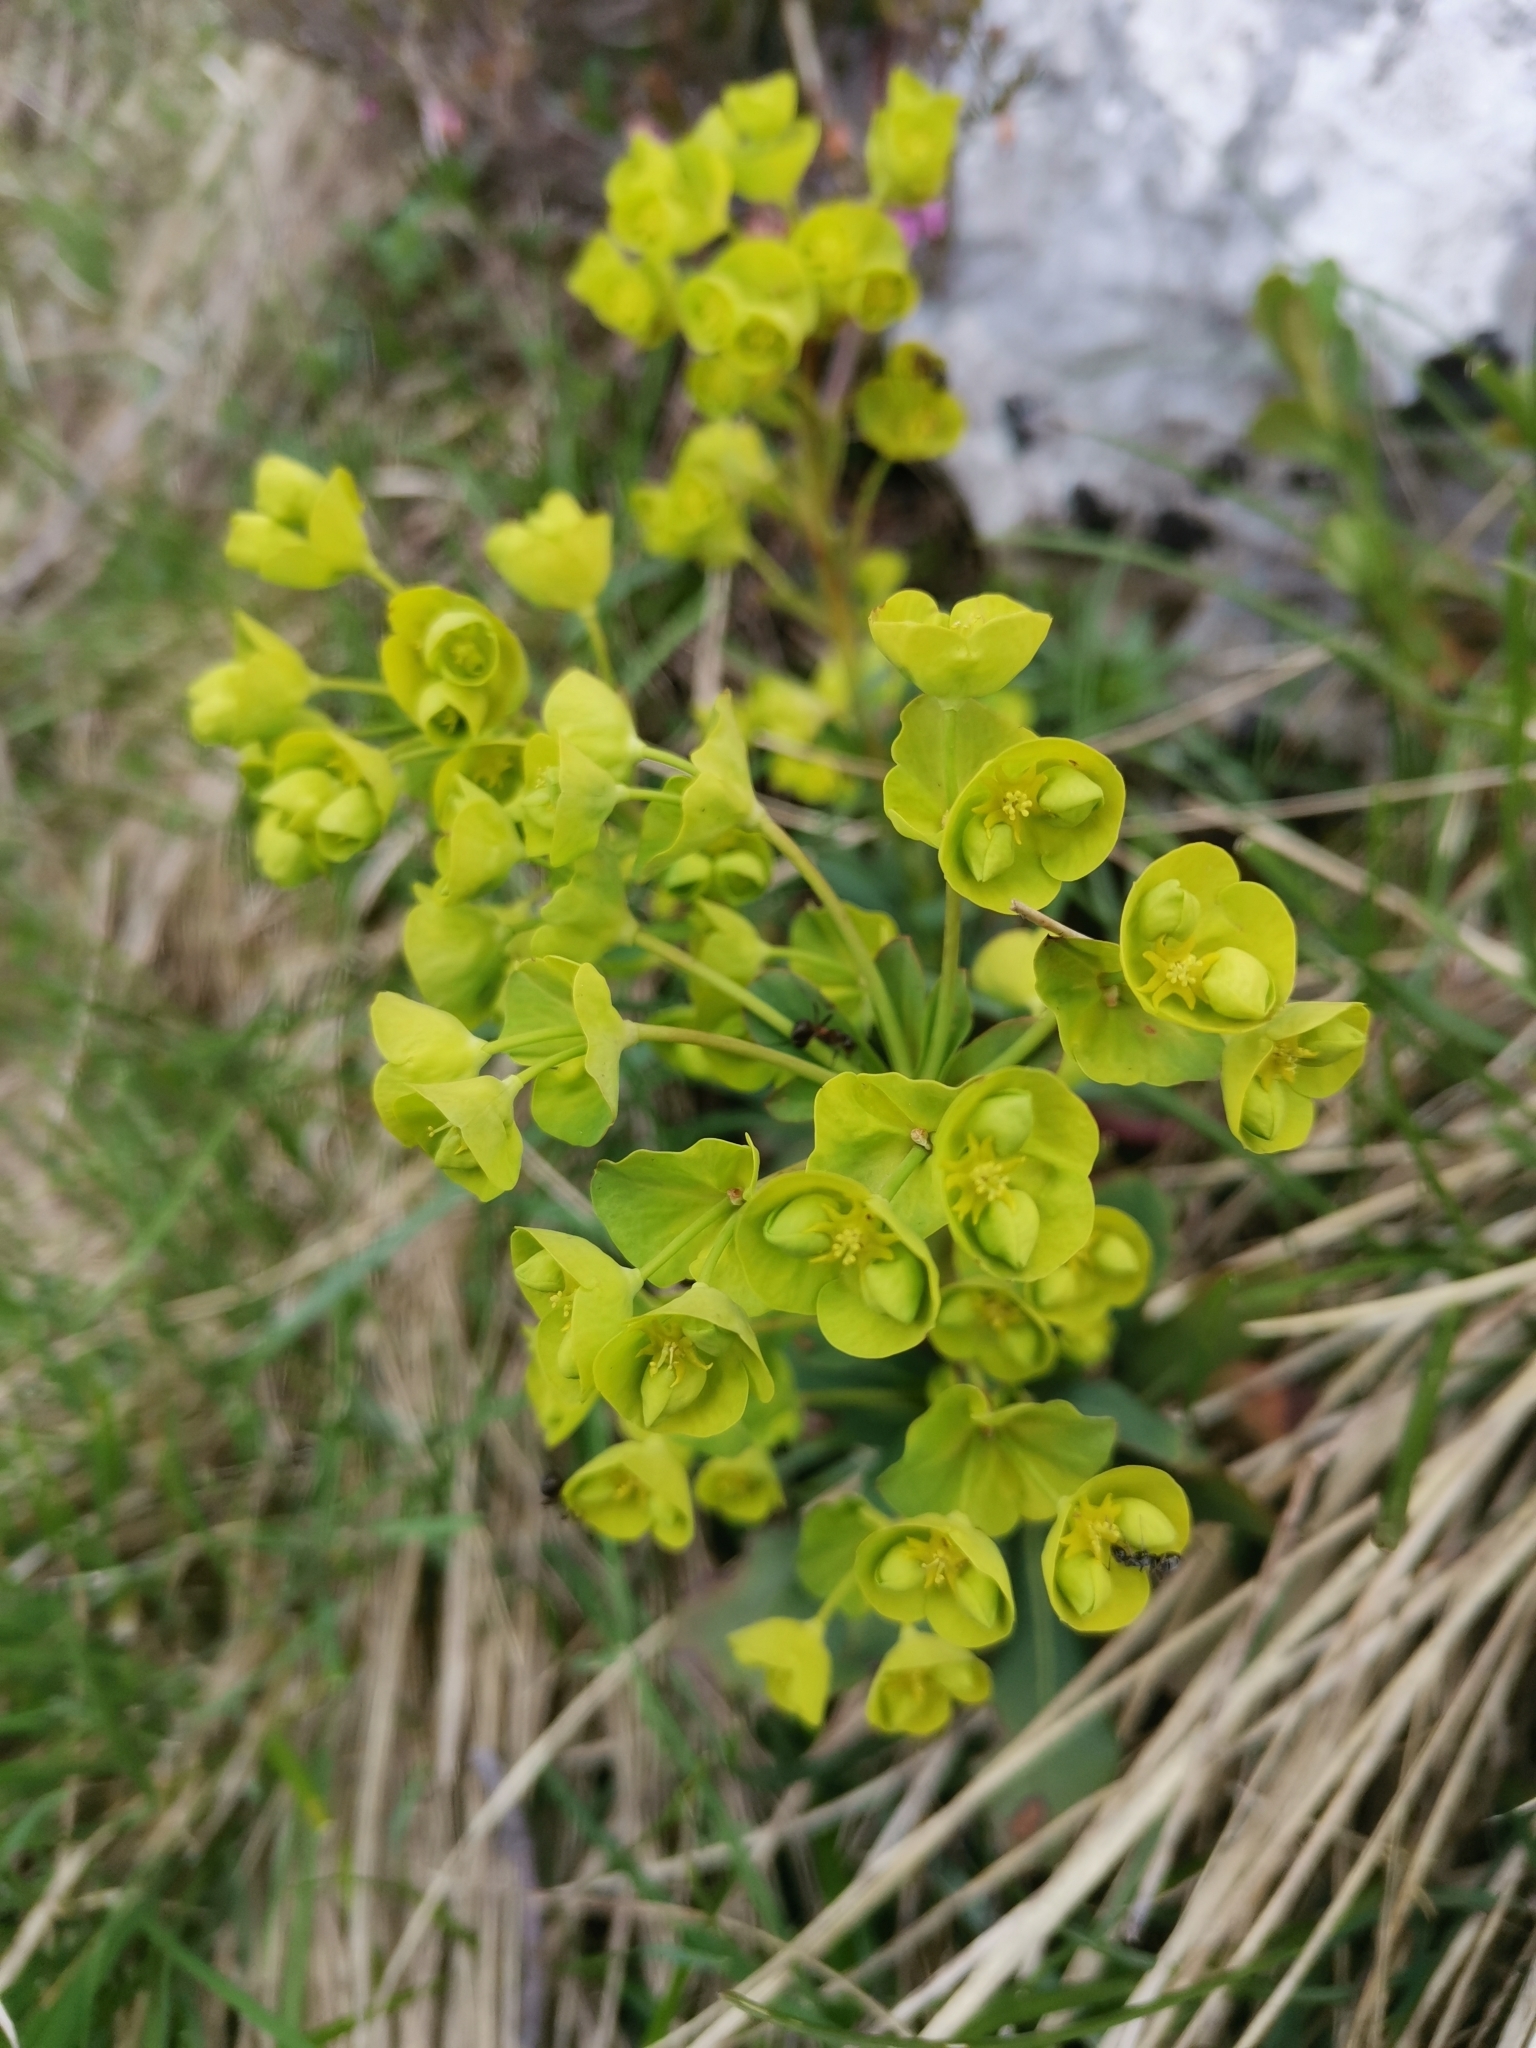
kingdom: Plantae
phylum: Tracheophyta
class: Magnoliopsida
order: Malpighiales
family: Euphorbiaceae
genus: Euphorbia
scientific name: Euphorbia amygdaloides
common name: Wood spurge
